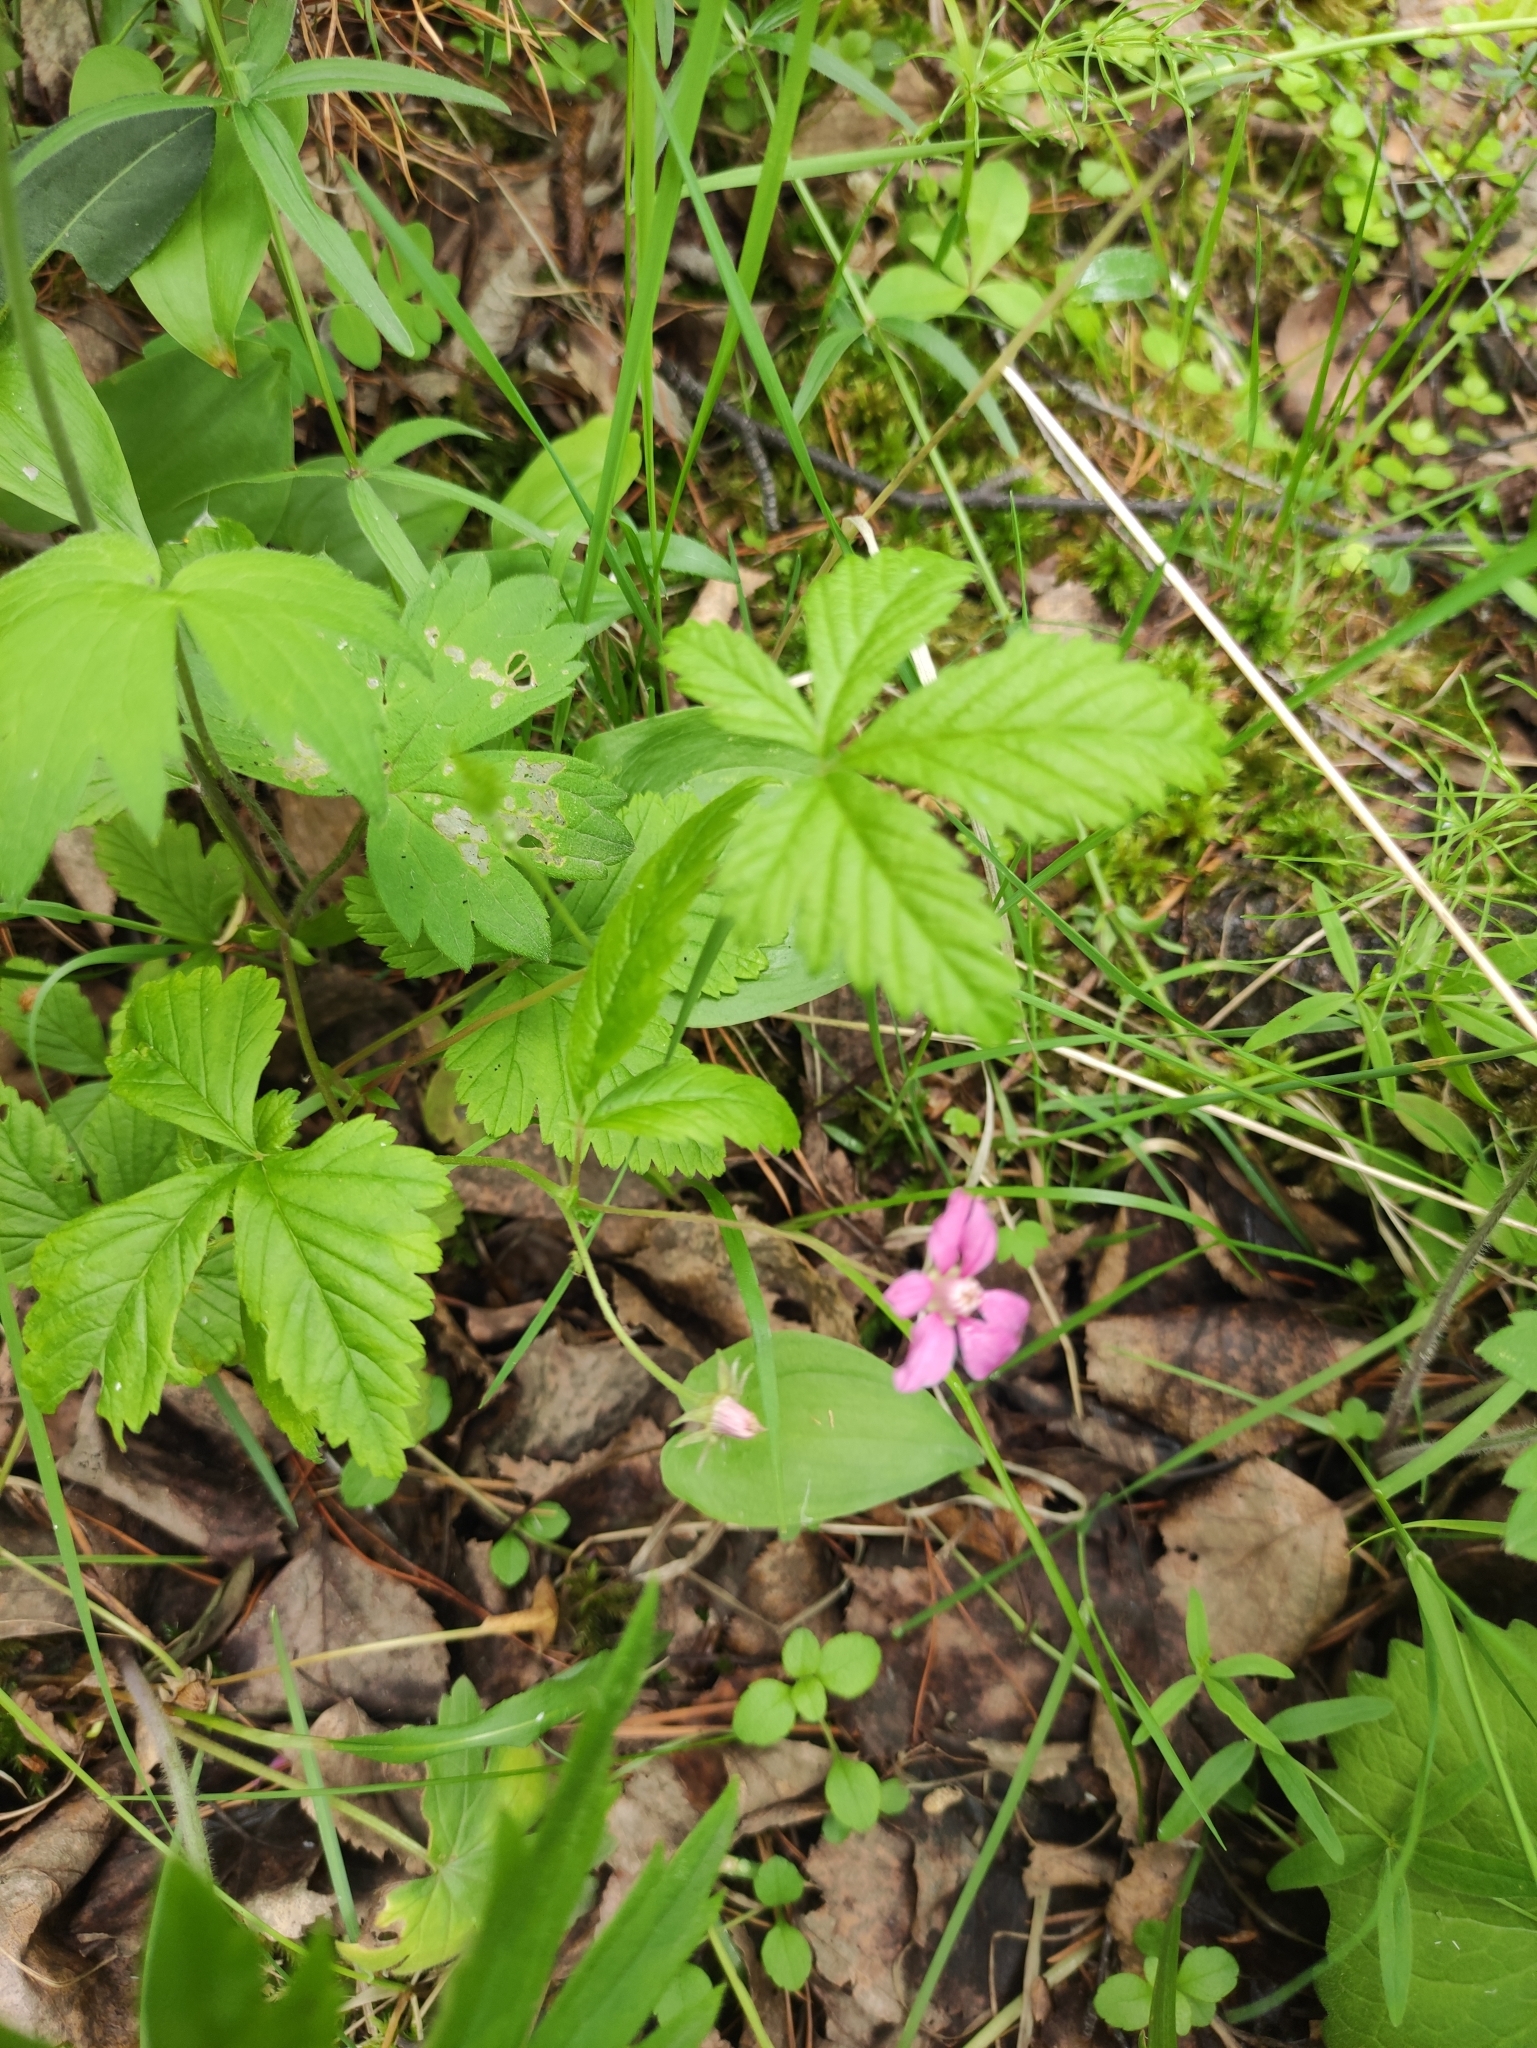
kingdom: Plantae
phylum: Tracheophyta
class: Magnoliopsida
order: Rosales
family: Rosaceae
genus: Rubus
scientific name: Rubus arcticus
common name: Arctic bramble
